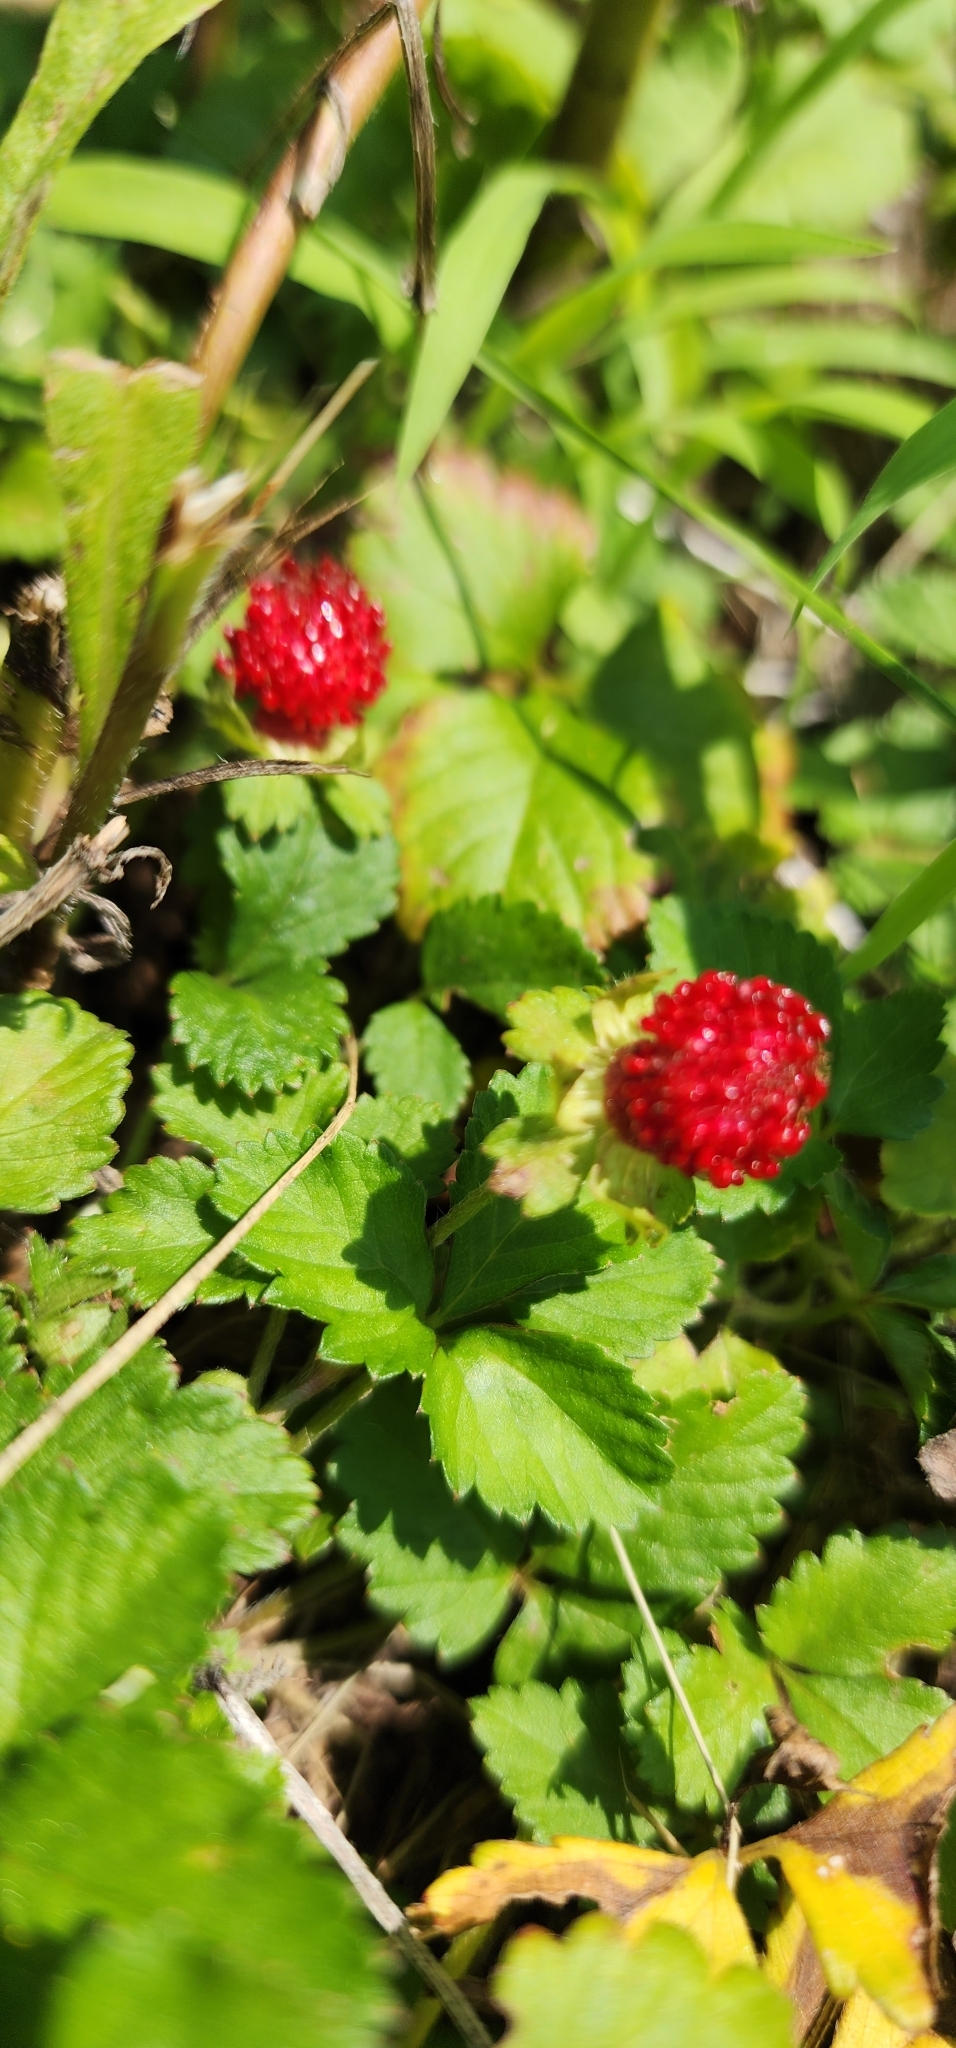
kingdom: Plantae
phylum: Tracheophyta
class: Magnoliopsida
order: Rosales
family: Rosaceae
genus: Potentilla
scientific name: Potentilla indica
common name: Yellow-flowered strawberry
